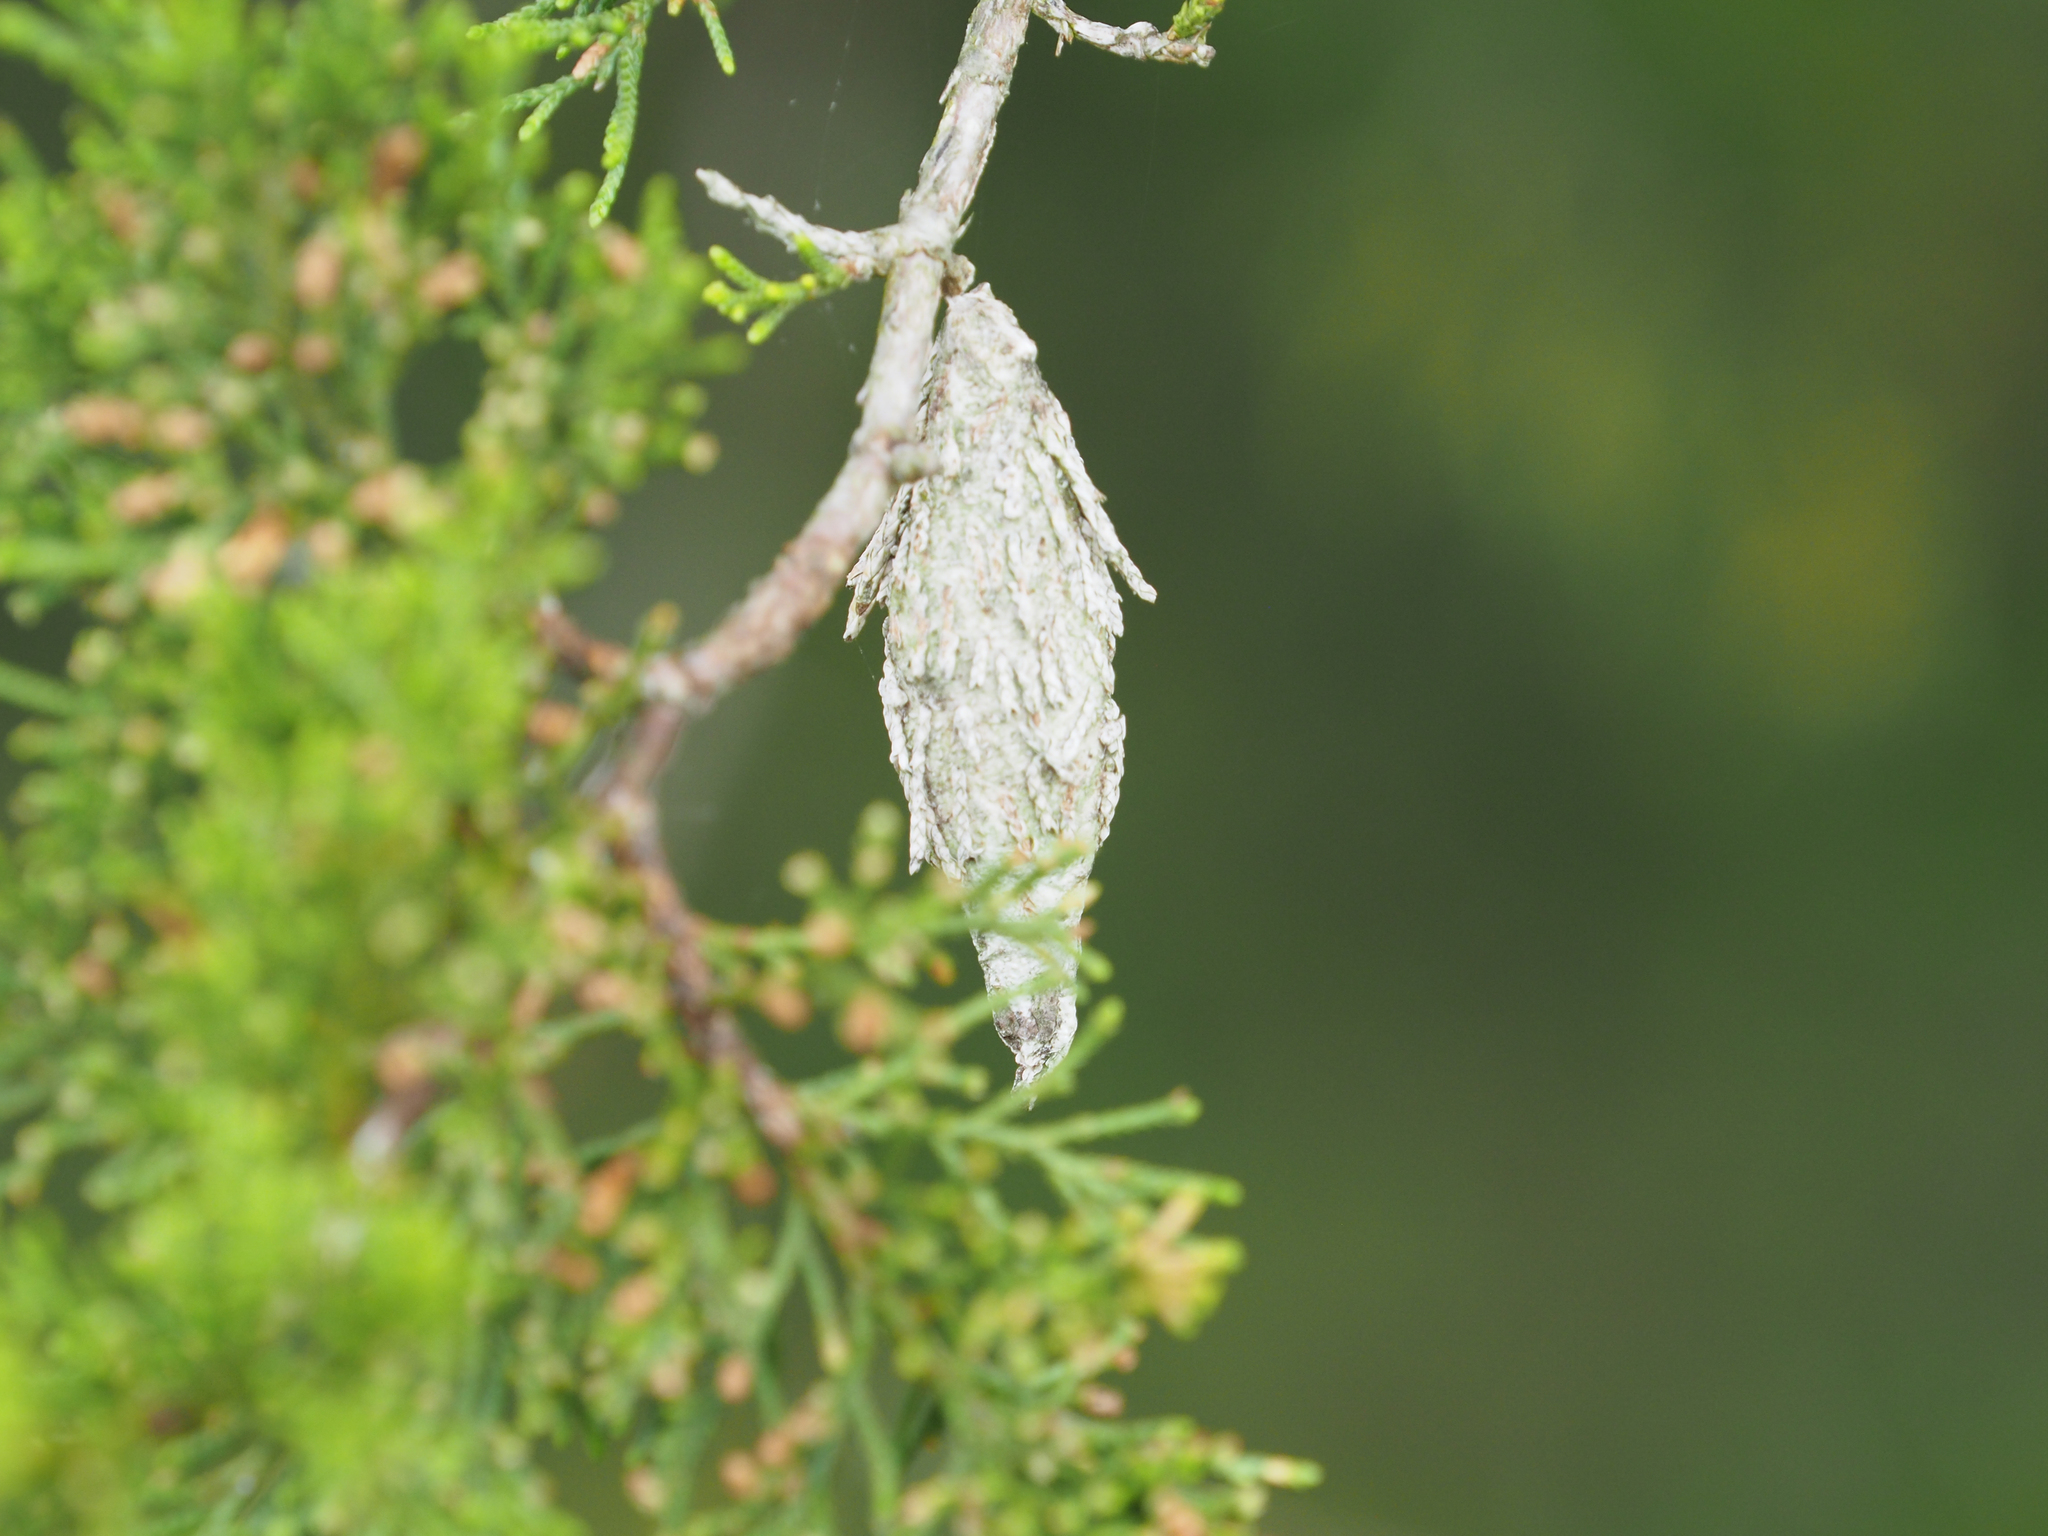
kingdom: Animalia
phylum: Arthropoda
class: Insecta
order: Lepidoptera
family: Psychidae
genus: Thyridopteryx
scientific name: Thyridopteryx ephemeraeformis
